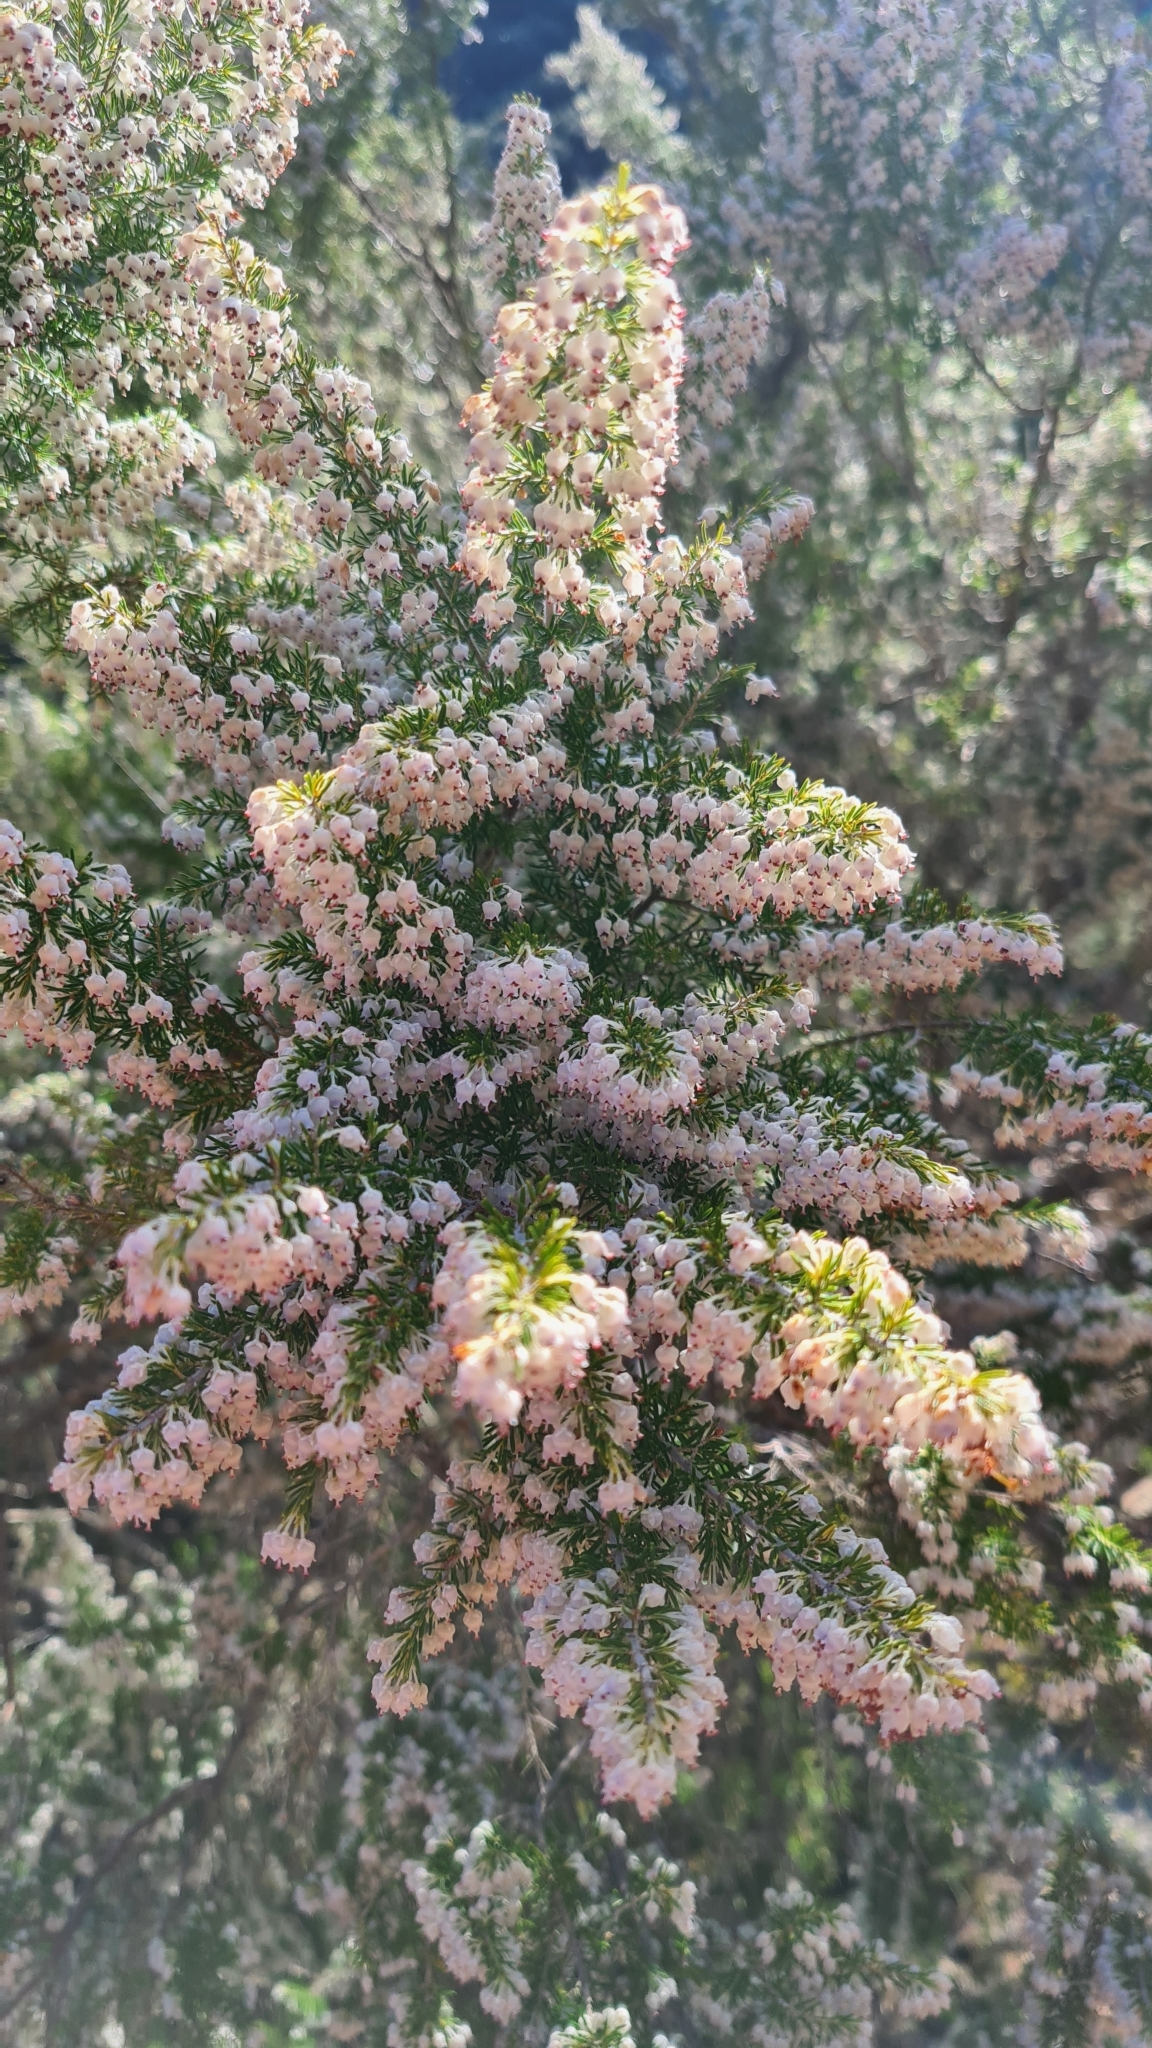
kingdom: Plantae
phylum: Tracheophyta
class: Magnoliopsida
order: Ericales
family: Ericaceae
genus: Erica
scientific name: Erica arborea
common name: Tree heath
